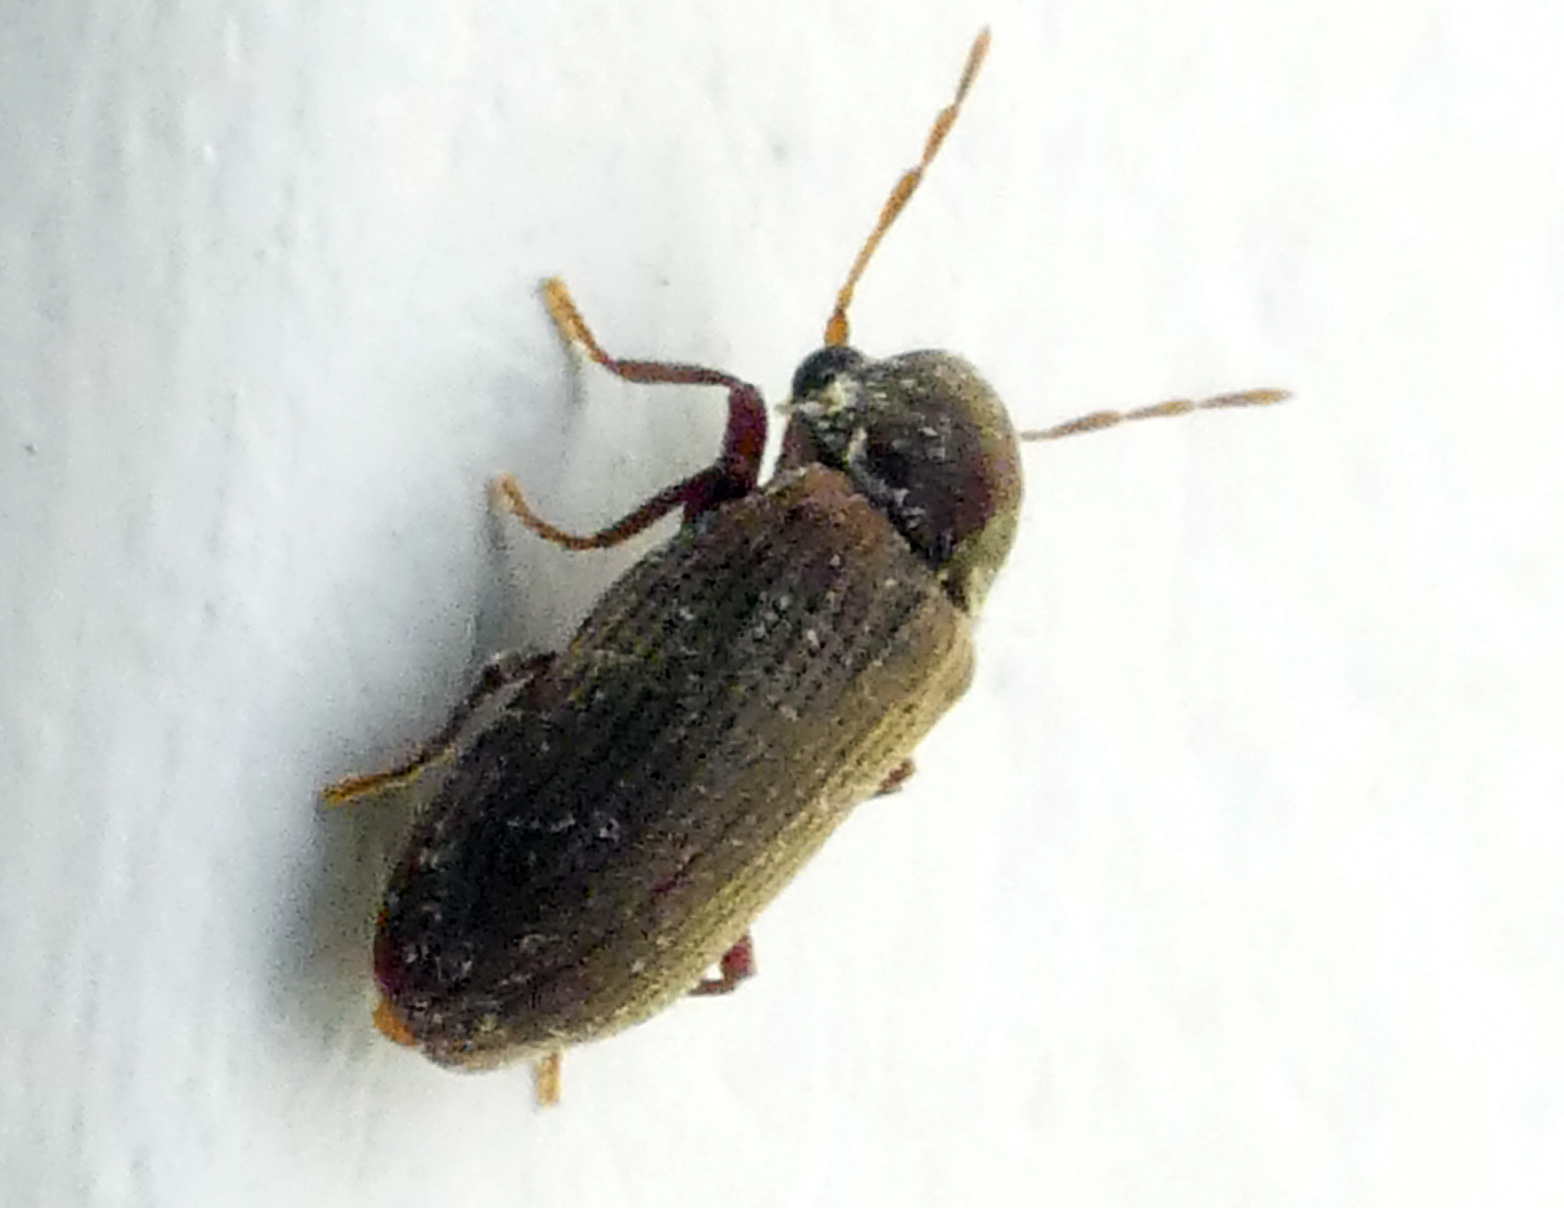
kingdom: Animalia
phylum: Arthropoda
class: Insecta
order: Coleoptera
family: Anobiidae
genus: Anobium
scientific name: Anobium punctatum
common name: Furniture beetle
